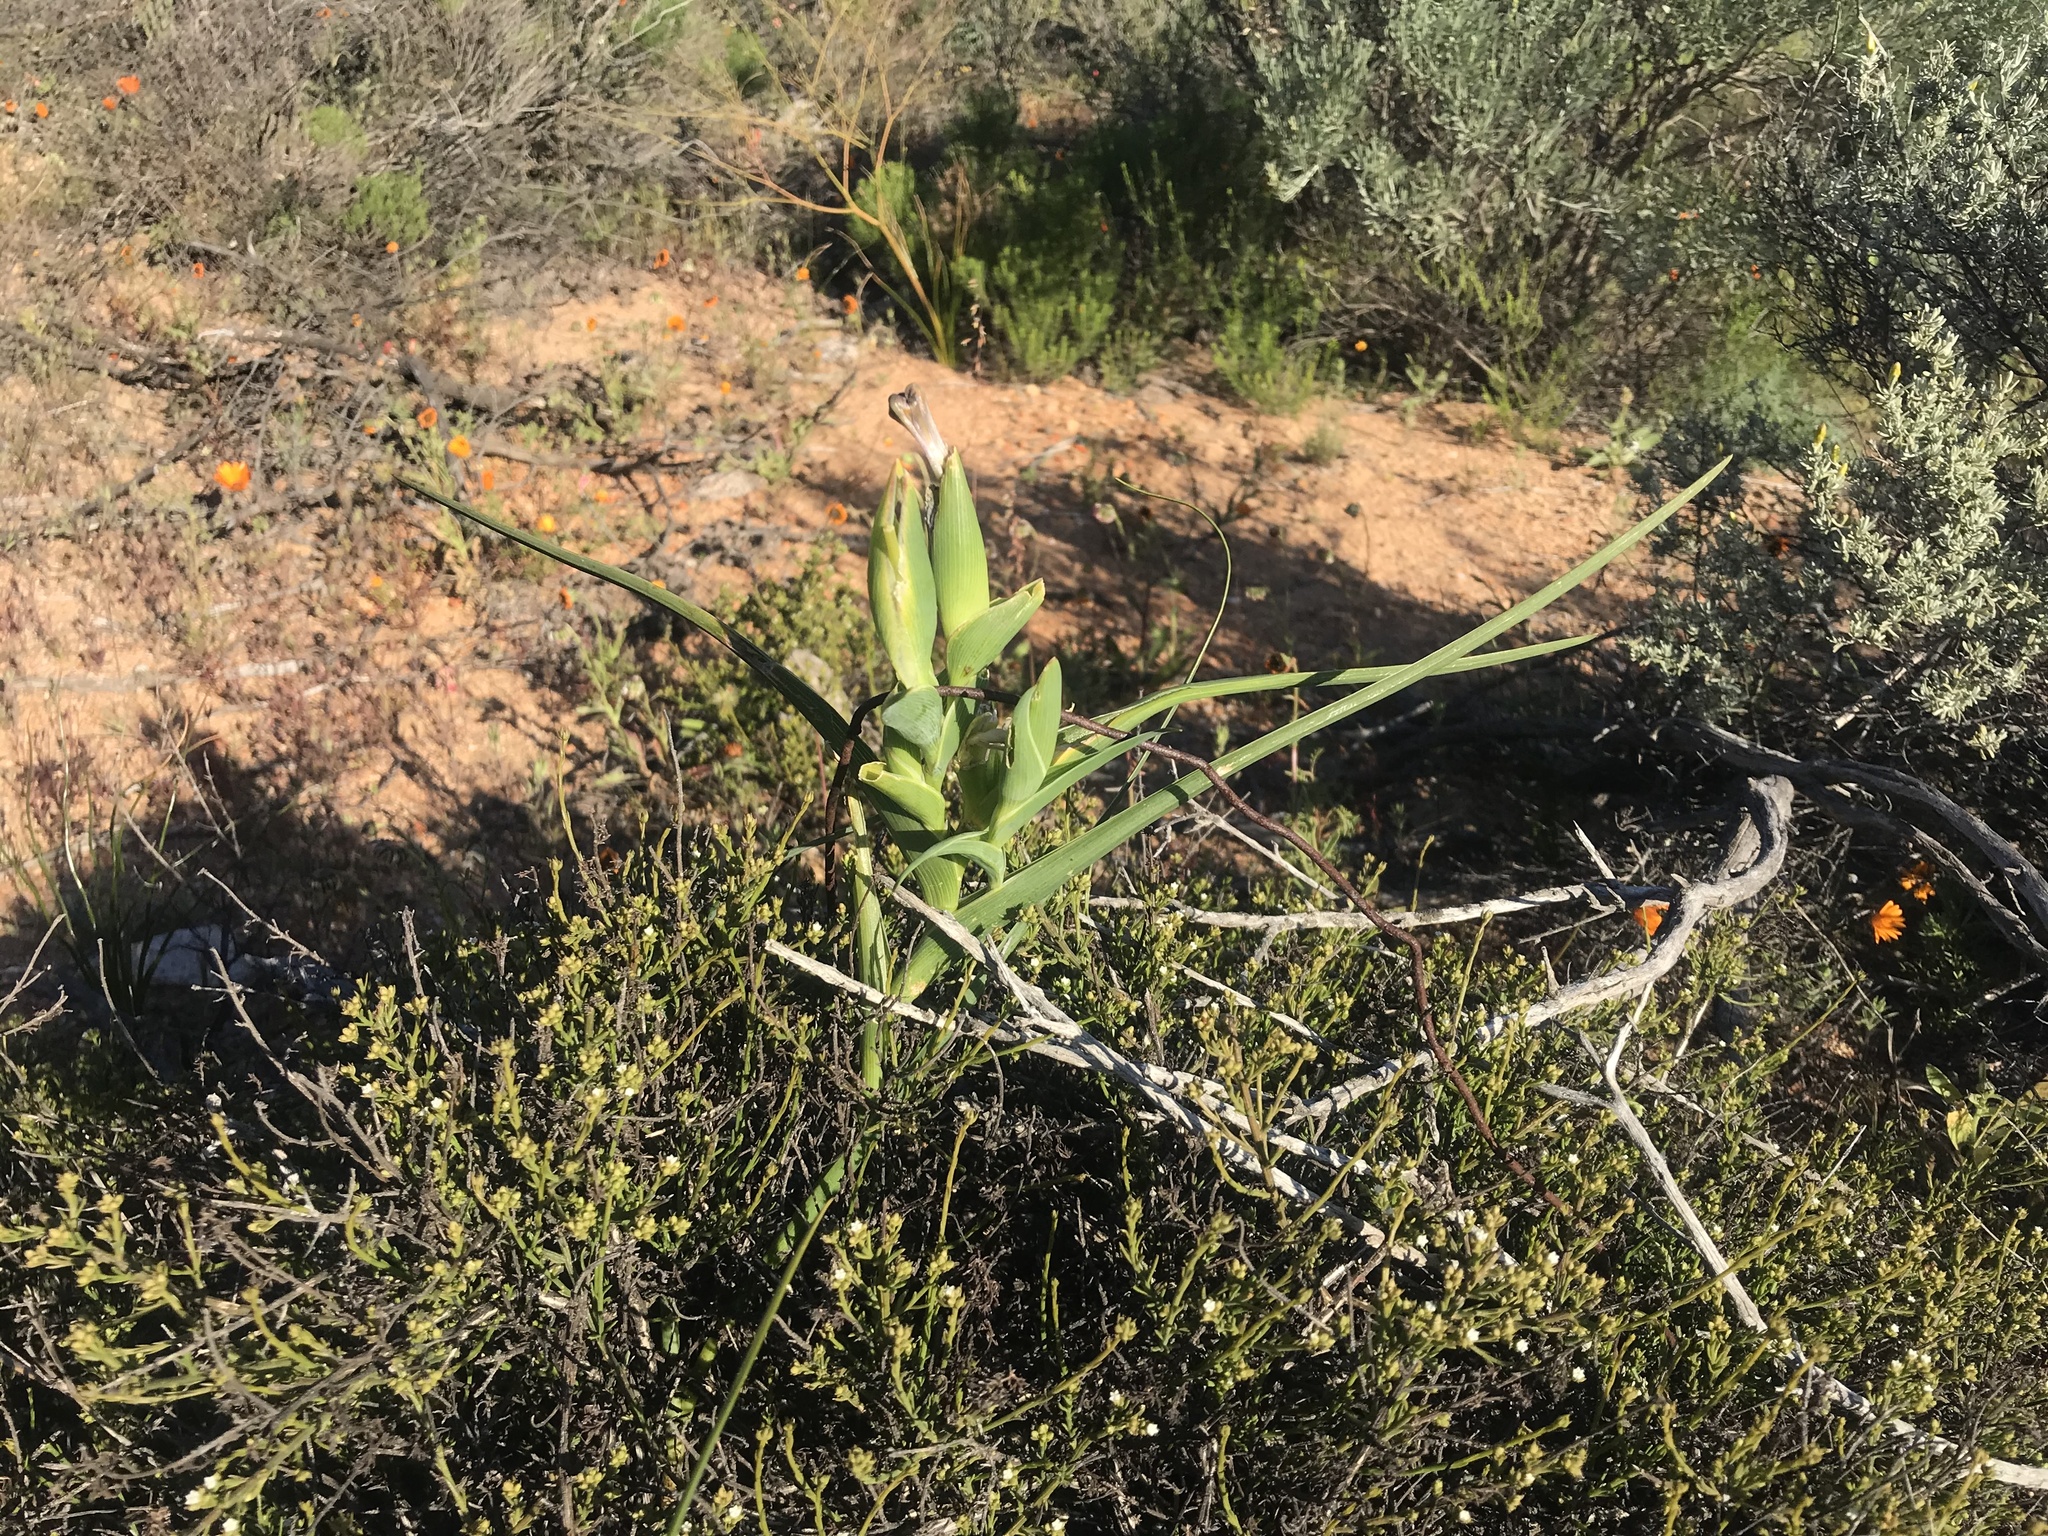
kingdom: Plantae
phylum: Tracheophyta
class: Liliopsida
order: Asparagales
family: Iridaceae
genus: Ferraria
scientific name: Ferraria ferrariola
